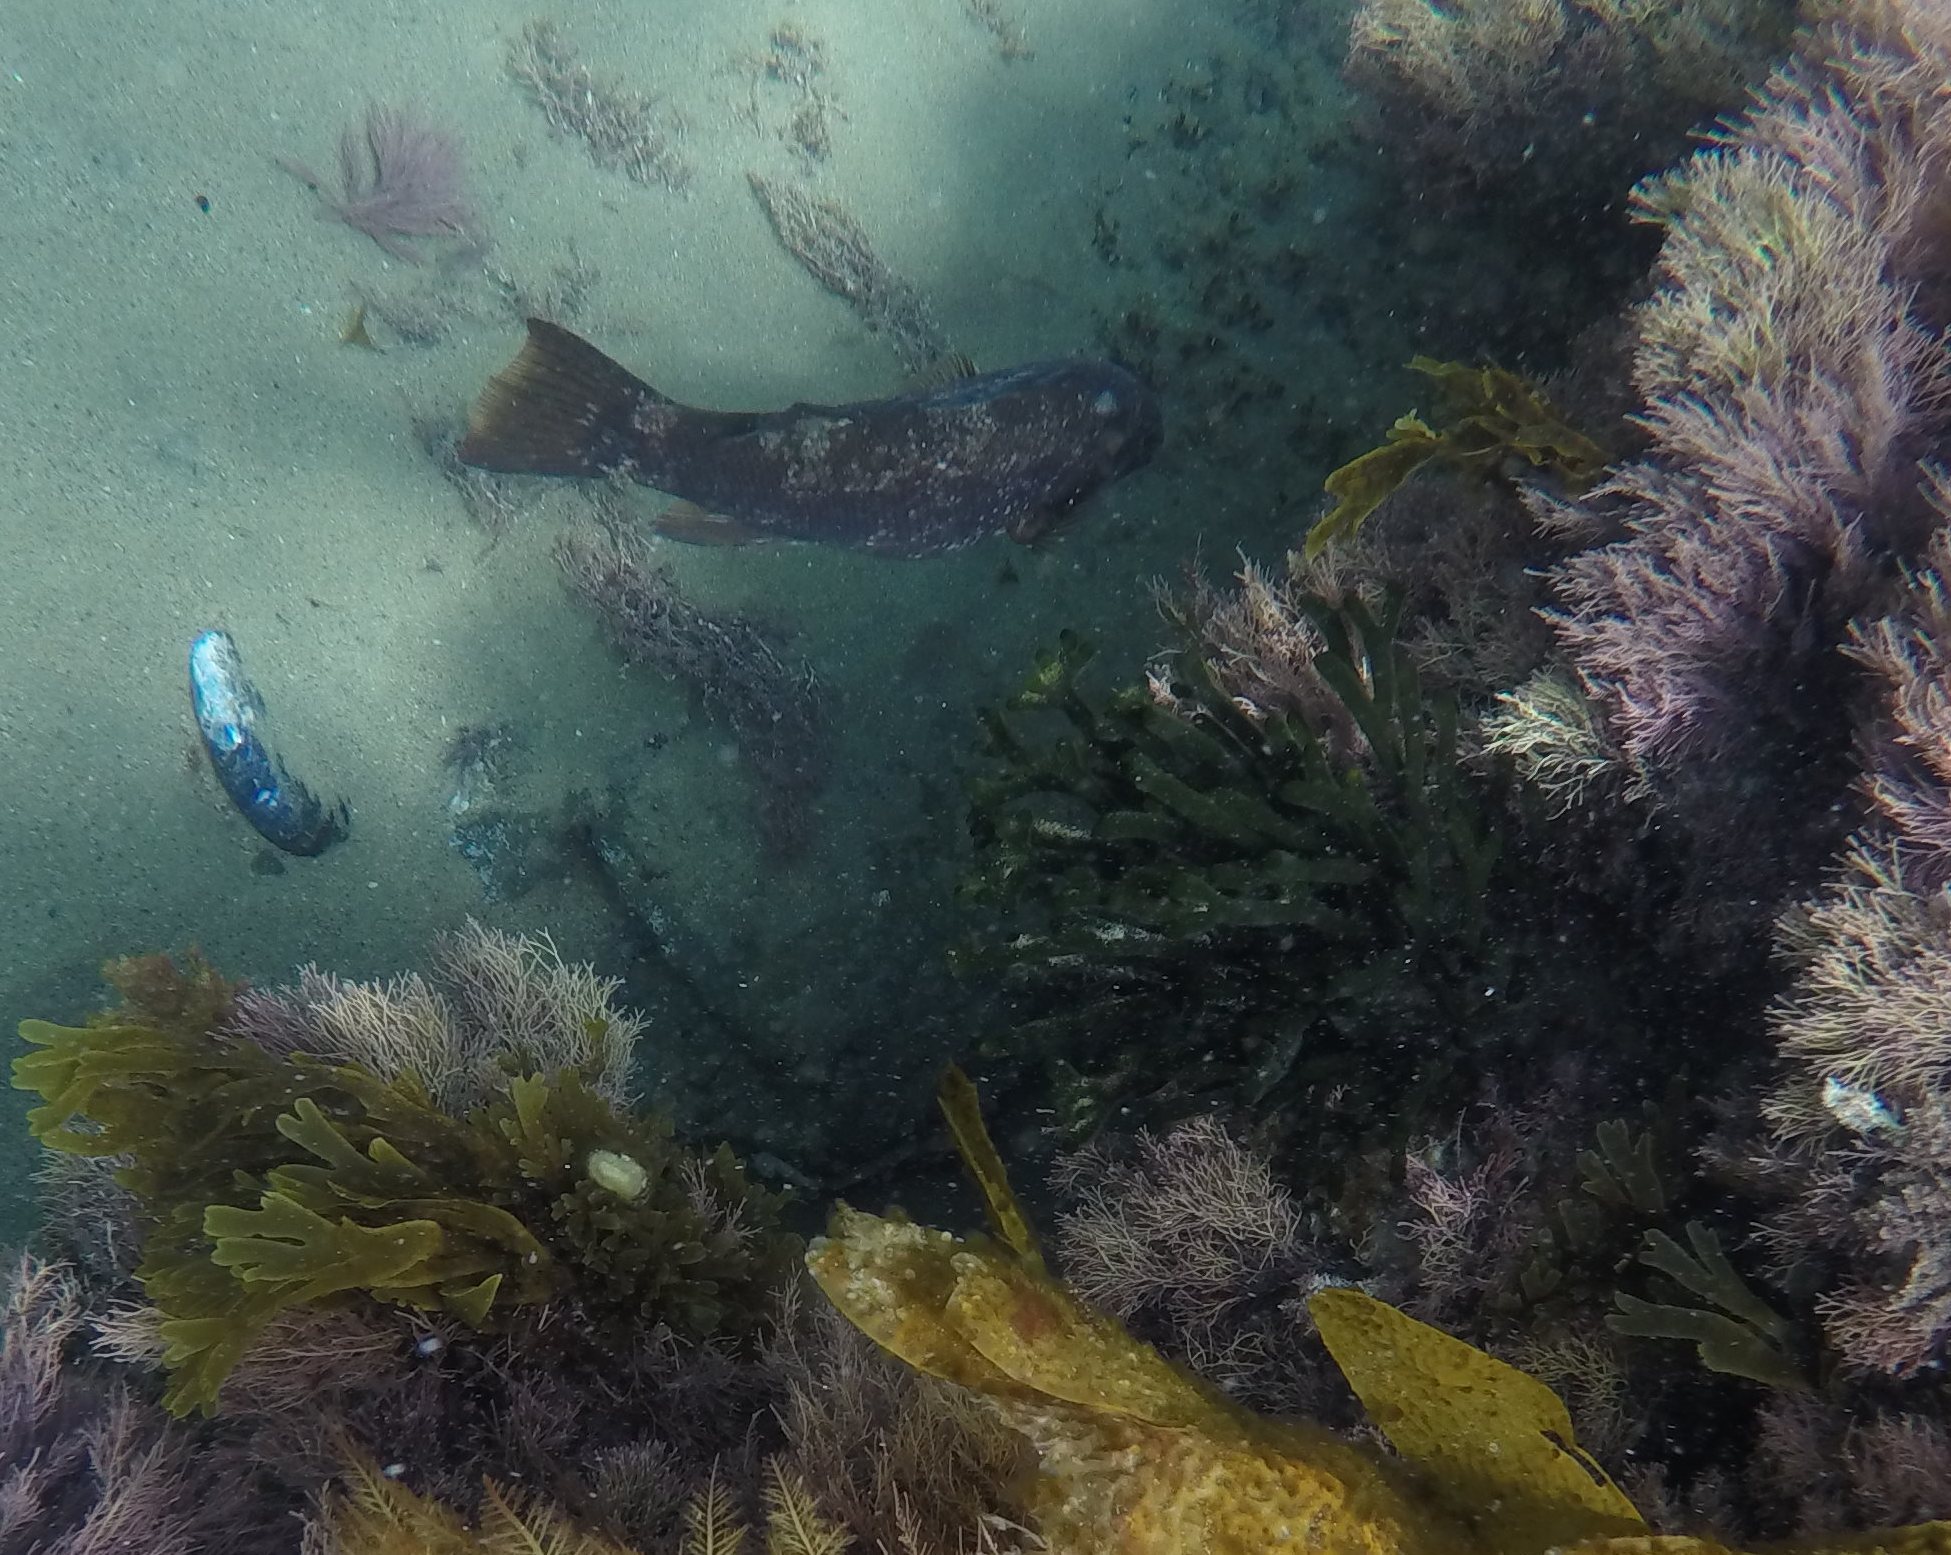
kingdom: Plantae
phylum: Chlorophyta
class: Ulvophyceae
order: Bryopsidales
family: Codiaceae
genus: Codium
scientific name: Codium fragile
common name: Dead man's fingers
